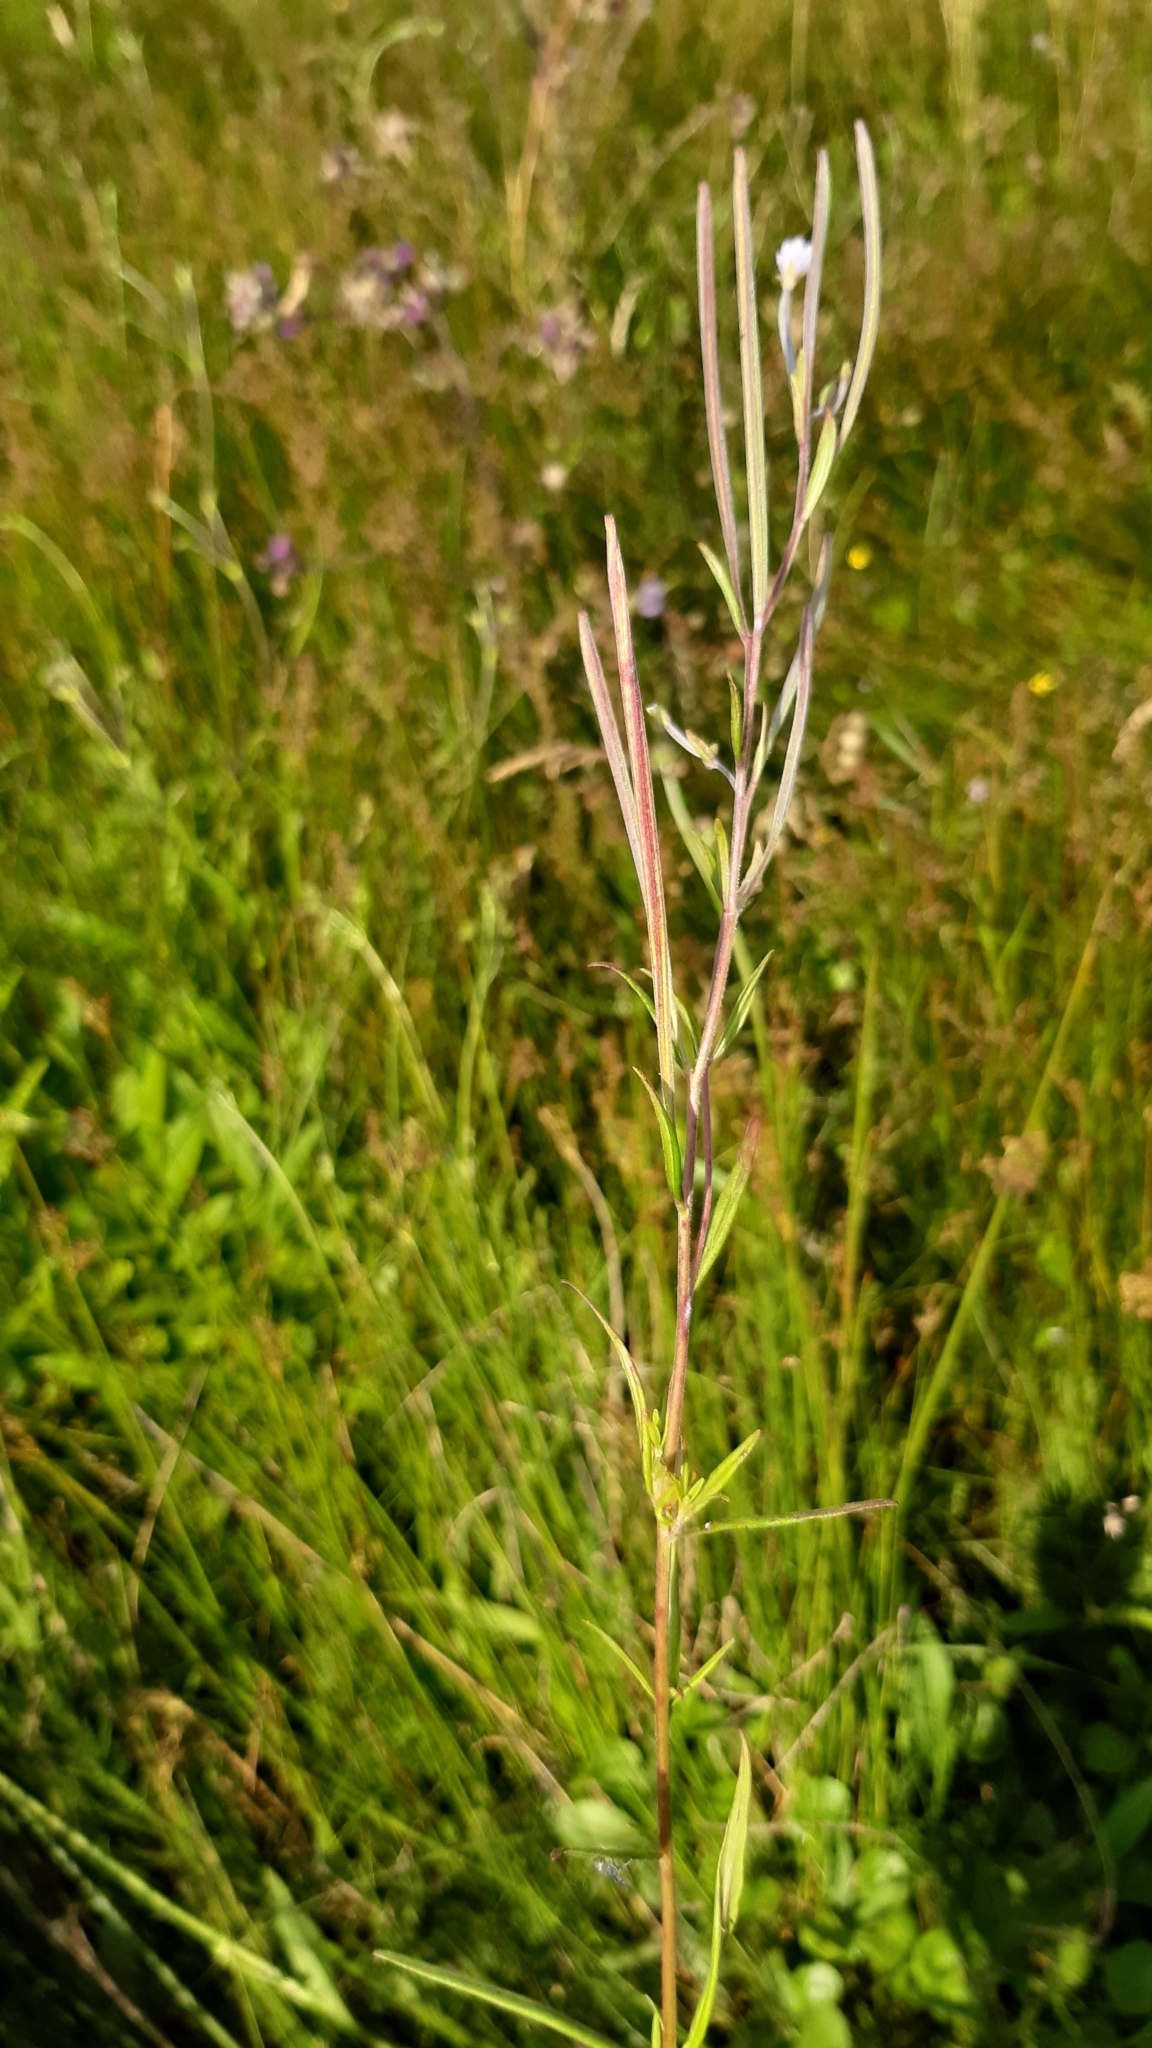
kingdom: Plantae
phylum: Tracheophyta
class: Magnoliopsida
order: Myrtales
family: Onagraceae
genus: Epilobium
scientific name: Epilobium palustre
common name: Marsh willowherb
